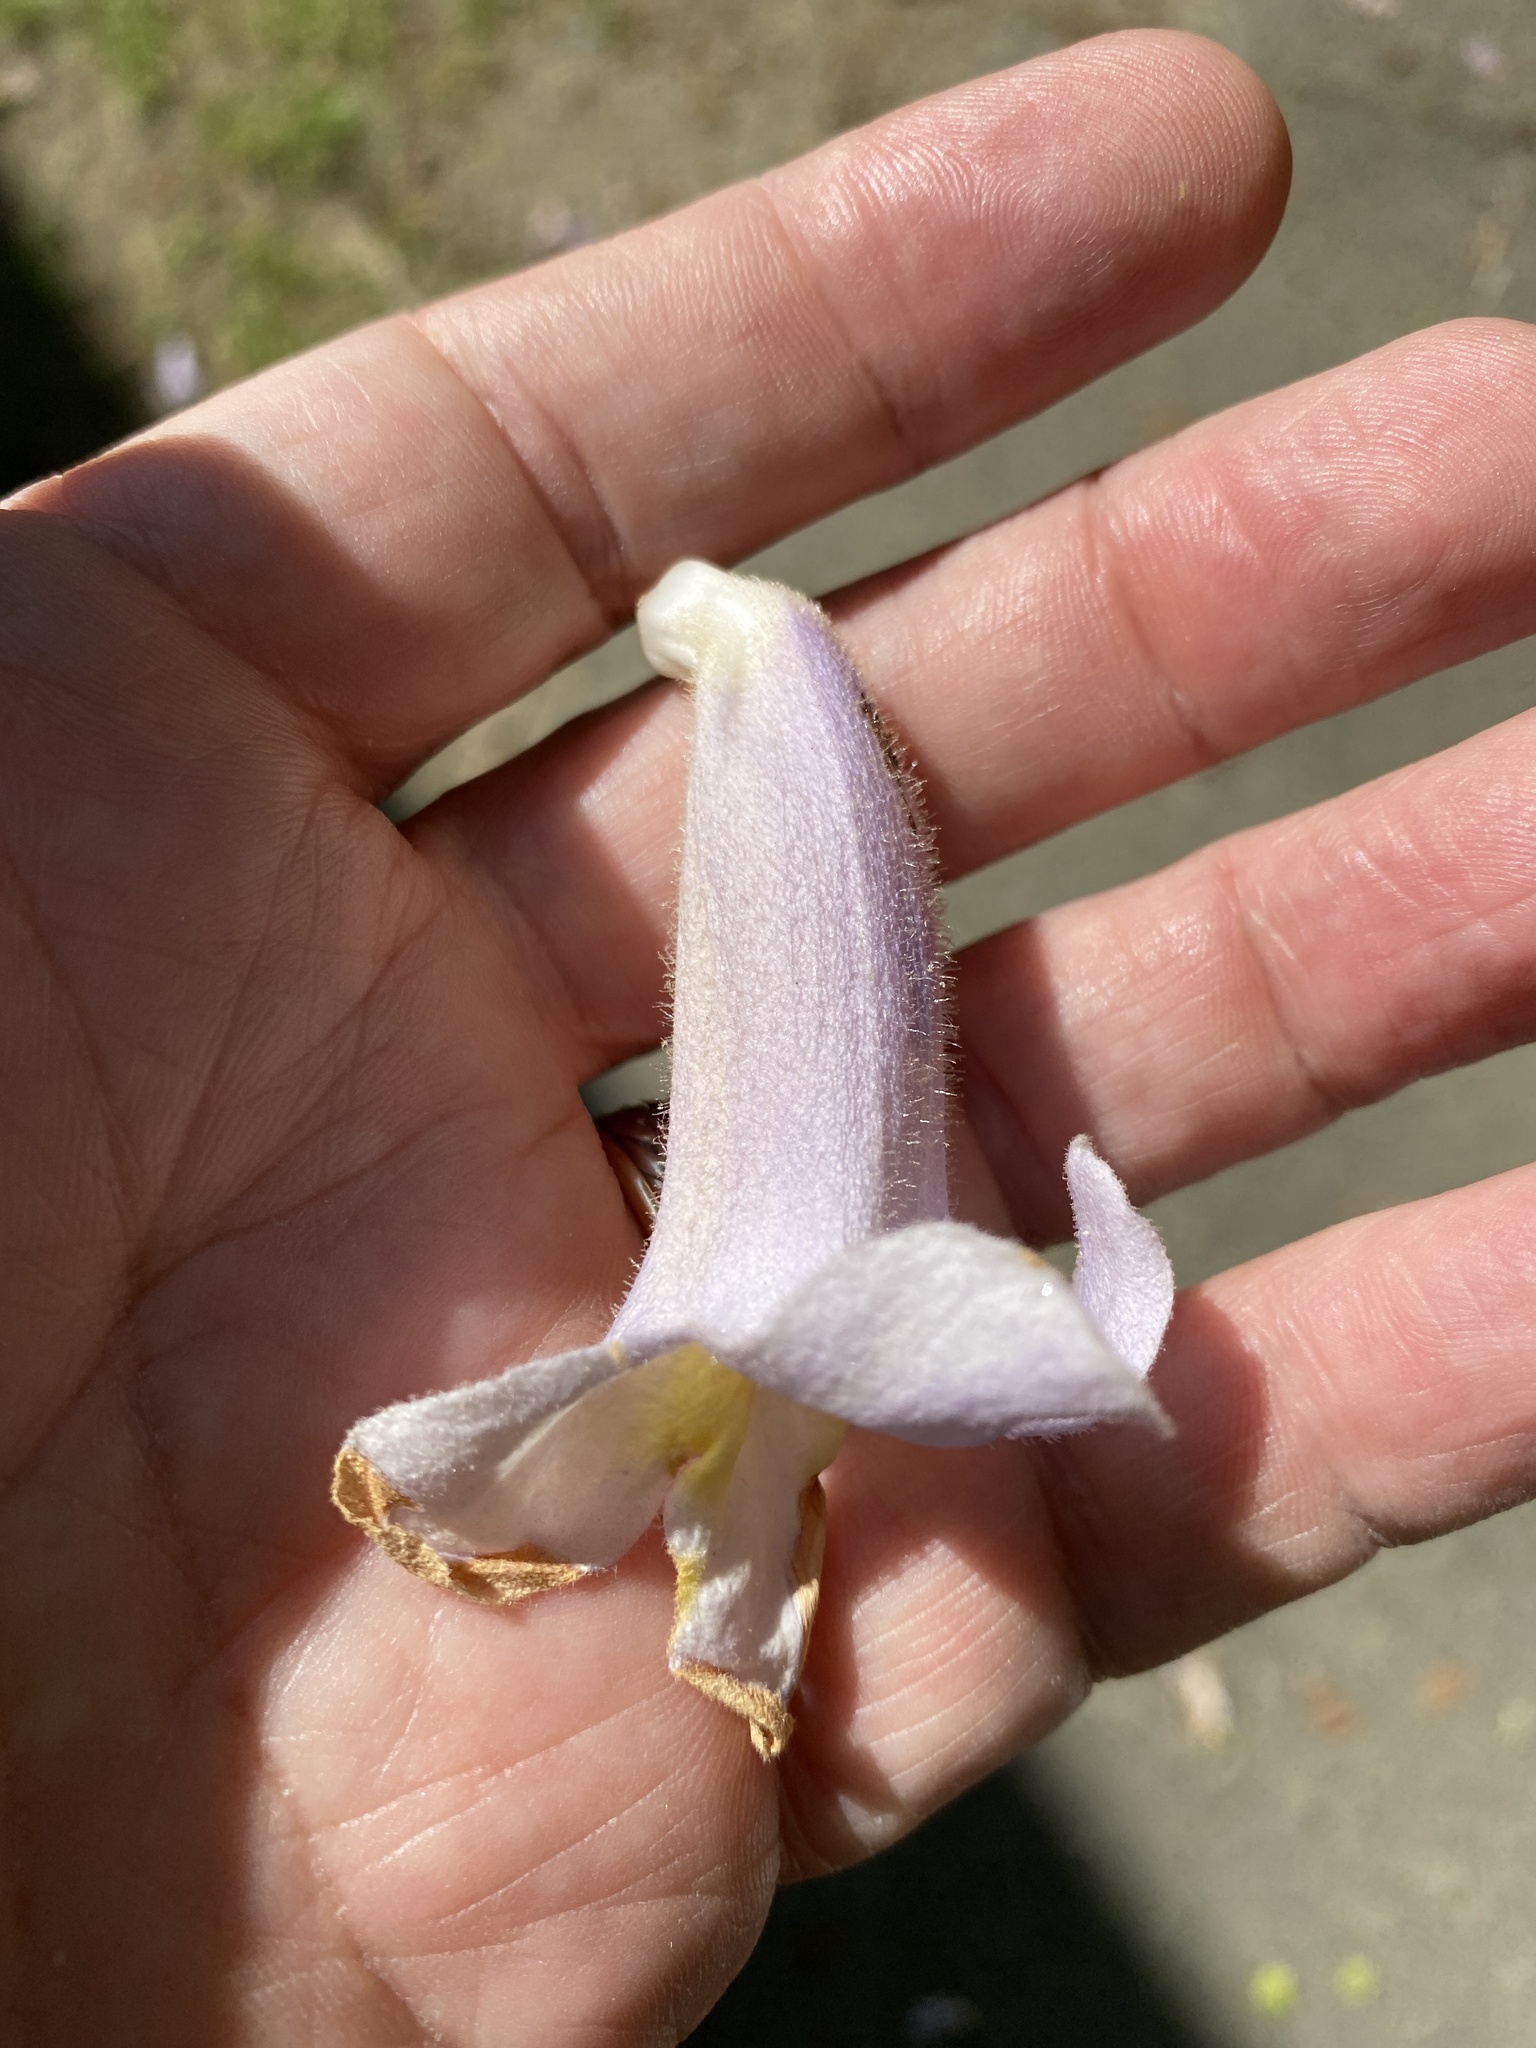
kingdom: Plantae
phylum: Tracheophyta
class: Magnoliopsida
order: Lamiales
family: Paulowniaceae
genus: Paulownia
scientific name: Paulownia tomentosa
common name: Foxglove-tree
